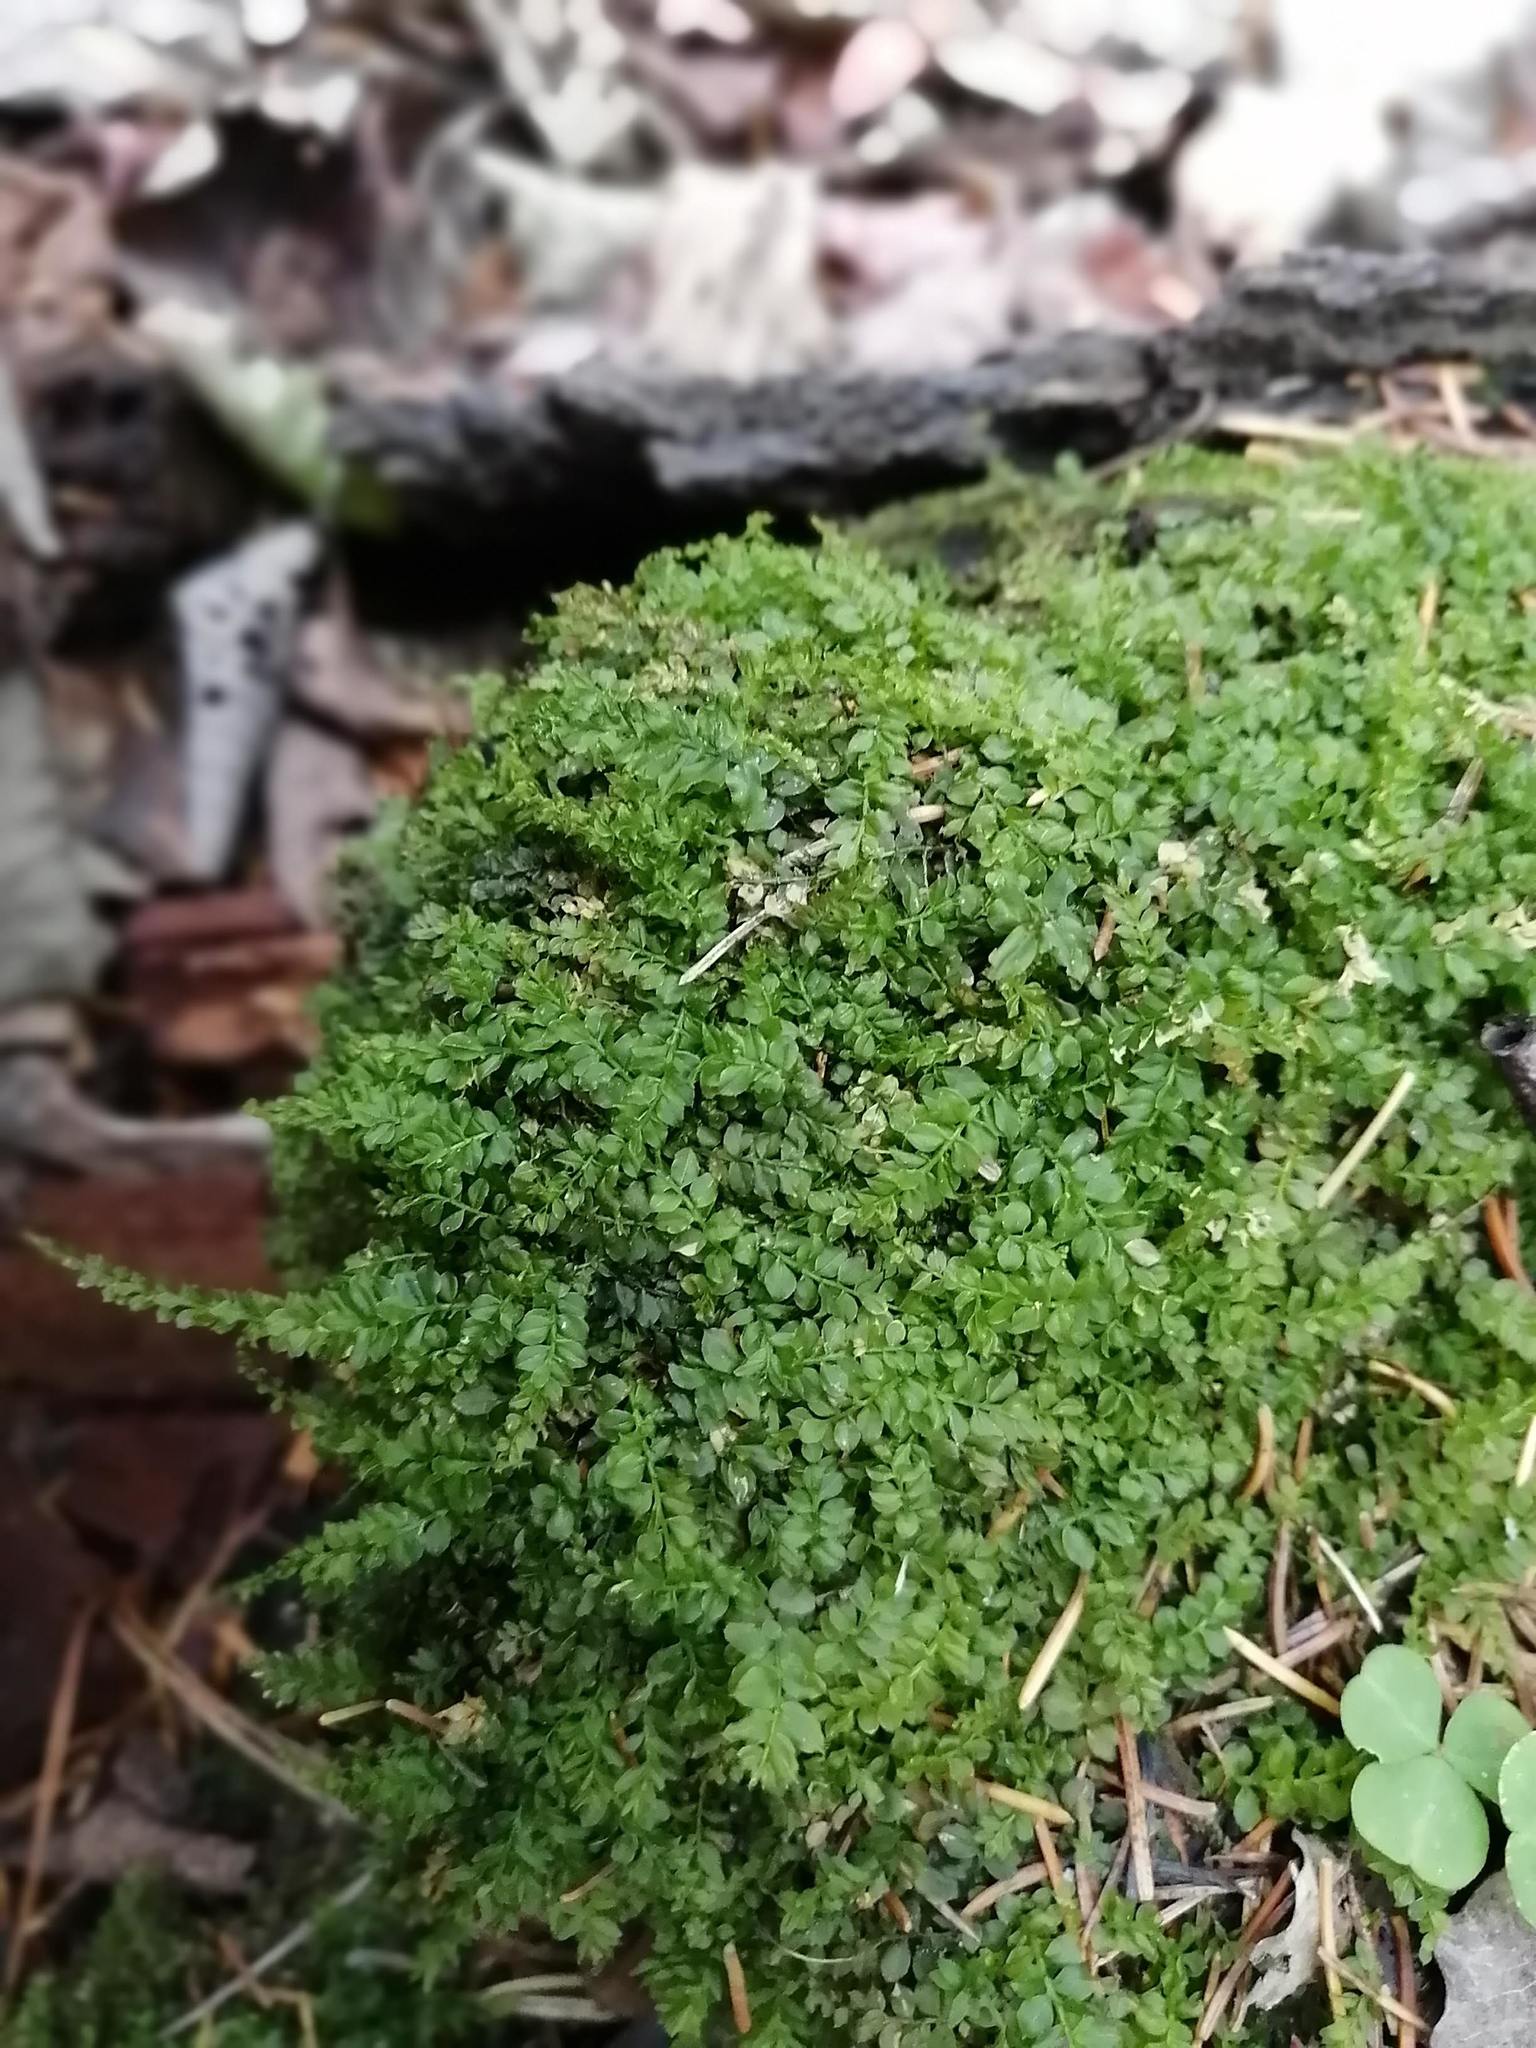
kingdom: Plantae
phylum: Bryophyta
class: Bryopsida
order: Bryales
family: Mniaceae
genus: Plagiomnium
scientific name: Plagiomnium cuspidatum
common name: Woodsy leafy moss
